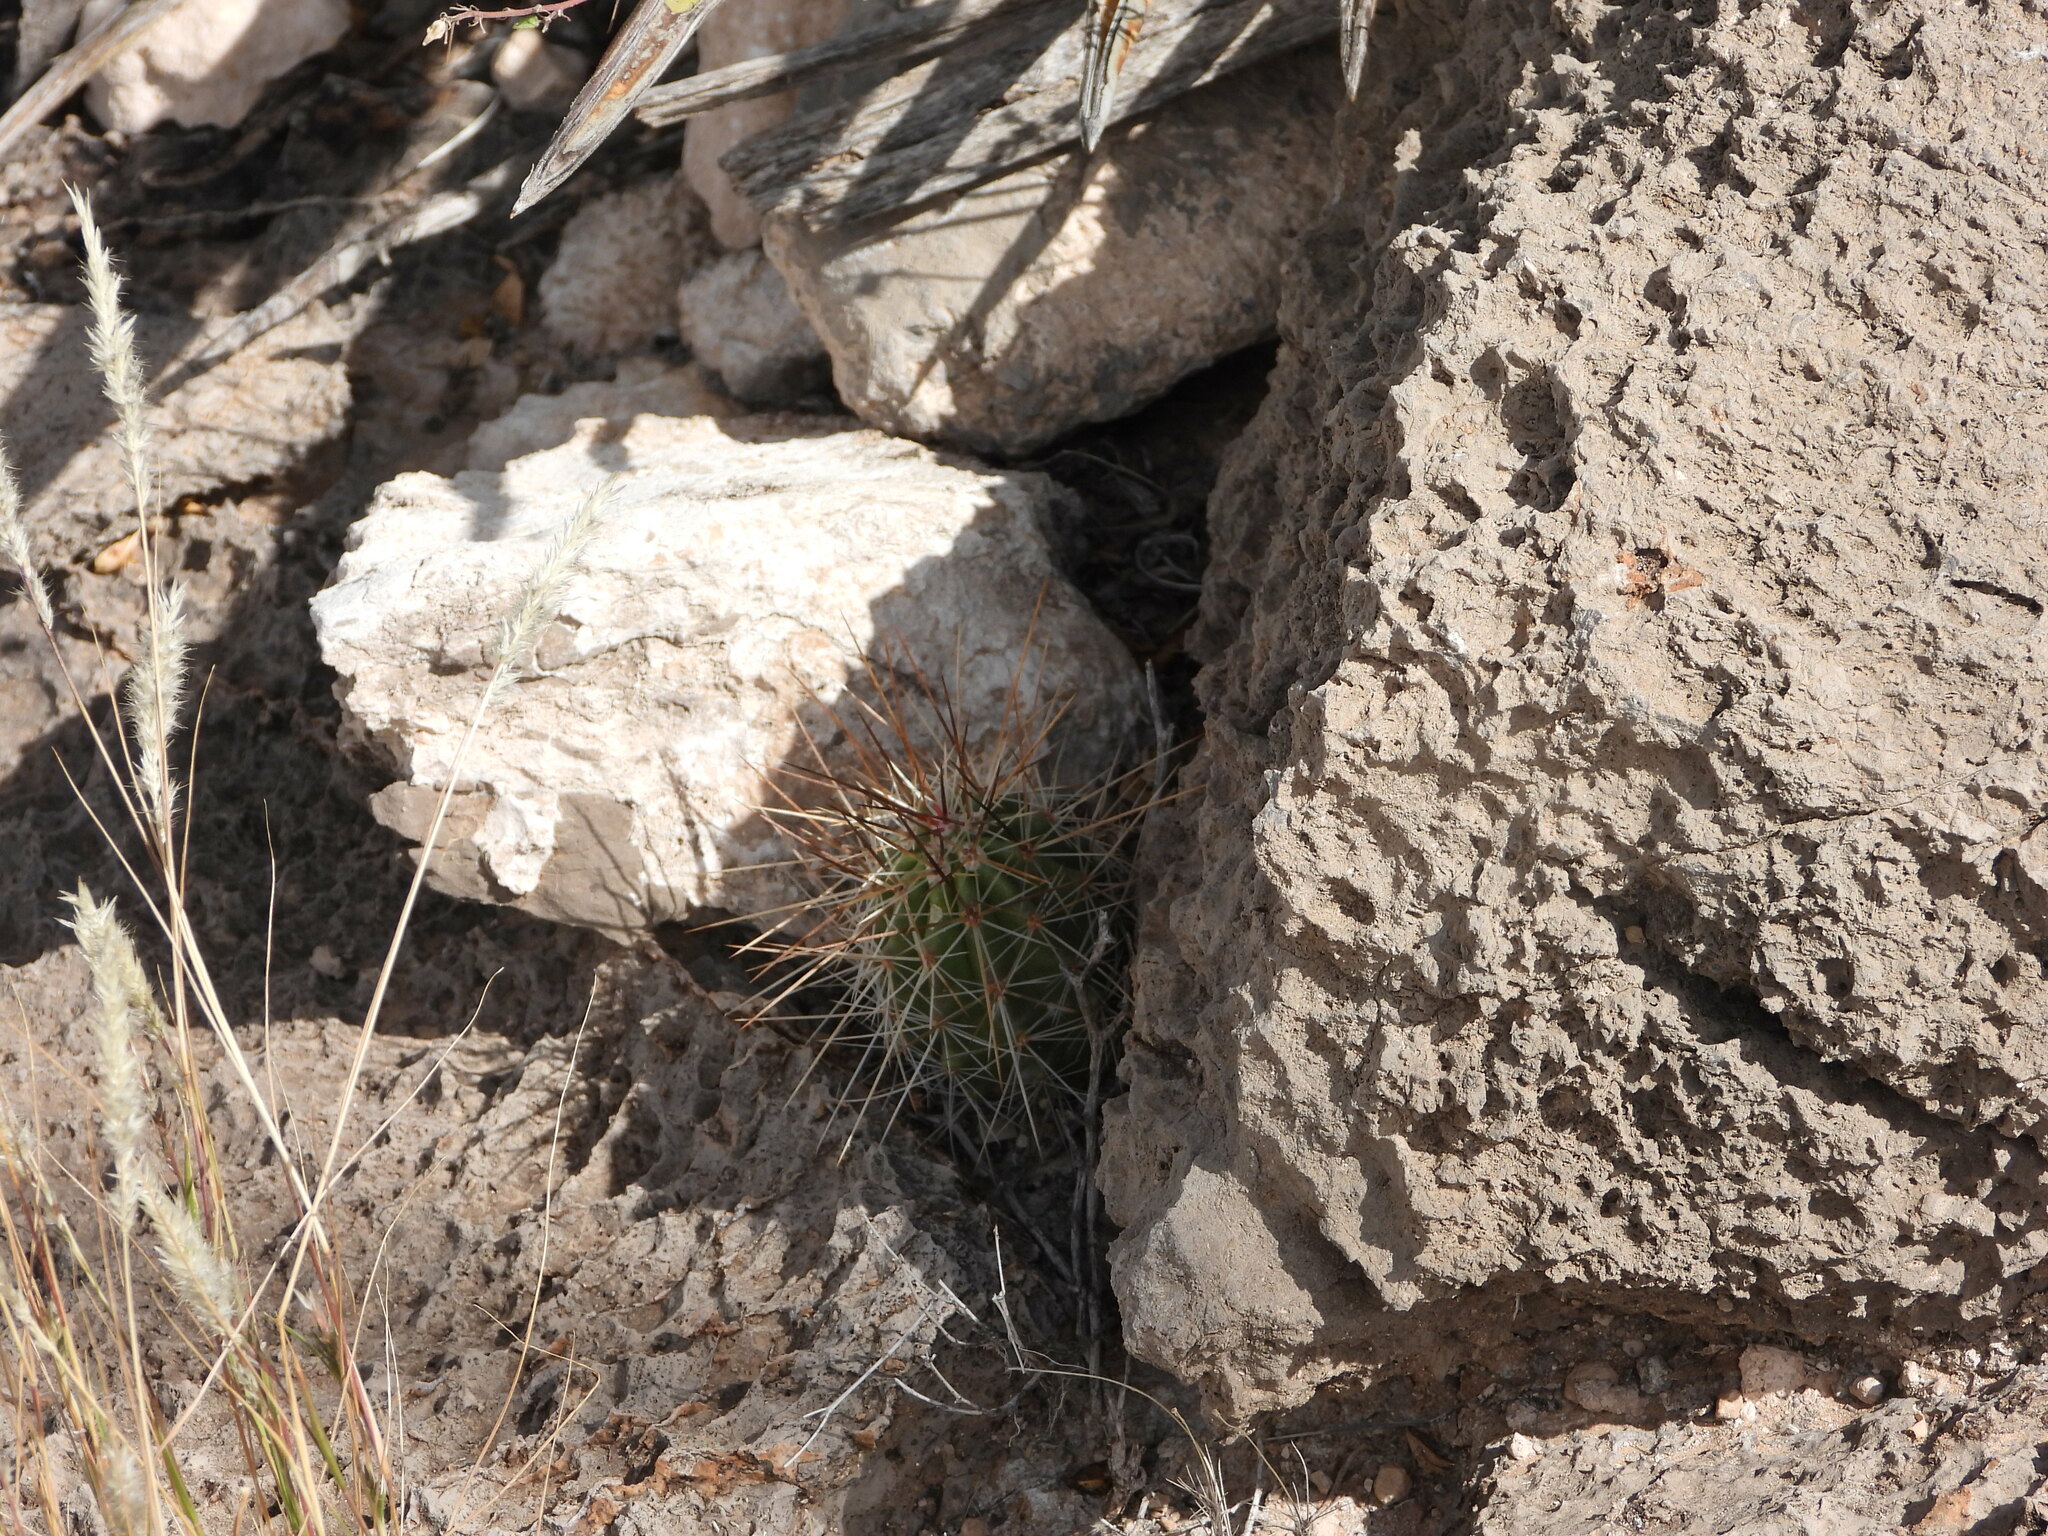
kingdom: Plantae
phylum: Tracheophyta
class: Magnoliopsida
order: Caryophyllales
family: Cactaceae
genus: Echinocereus
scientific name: Echinocereus stramineus
